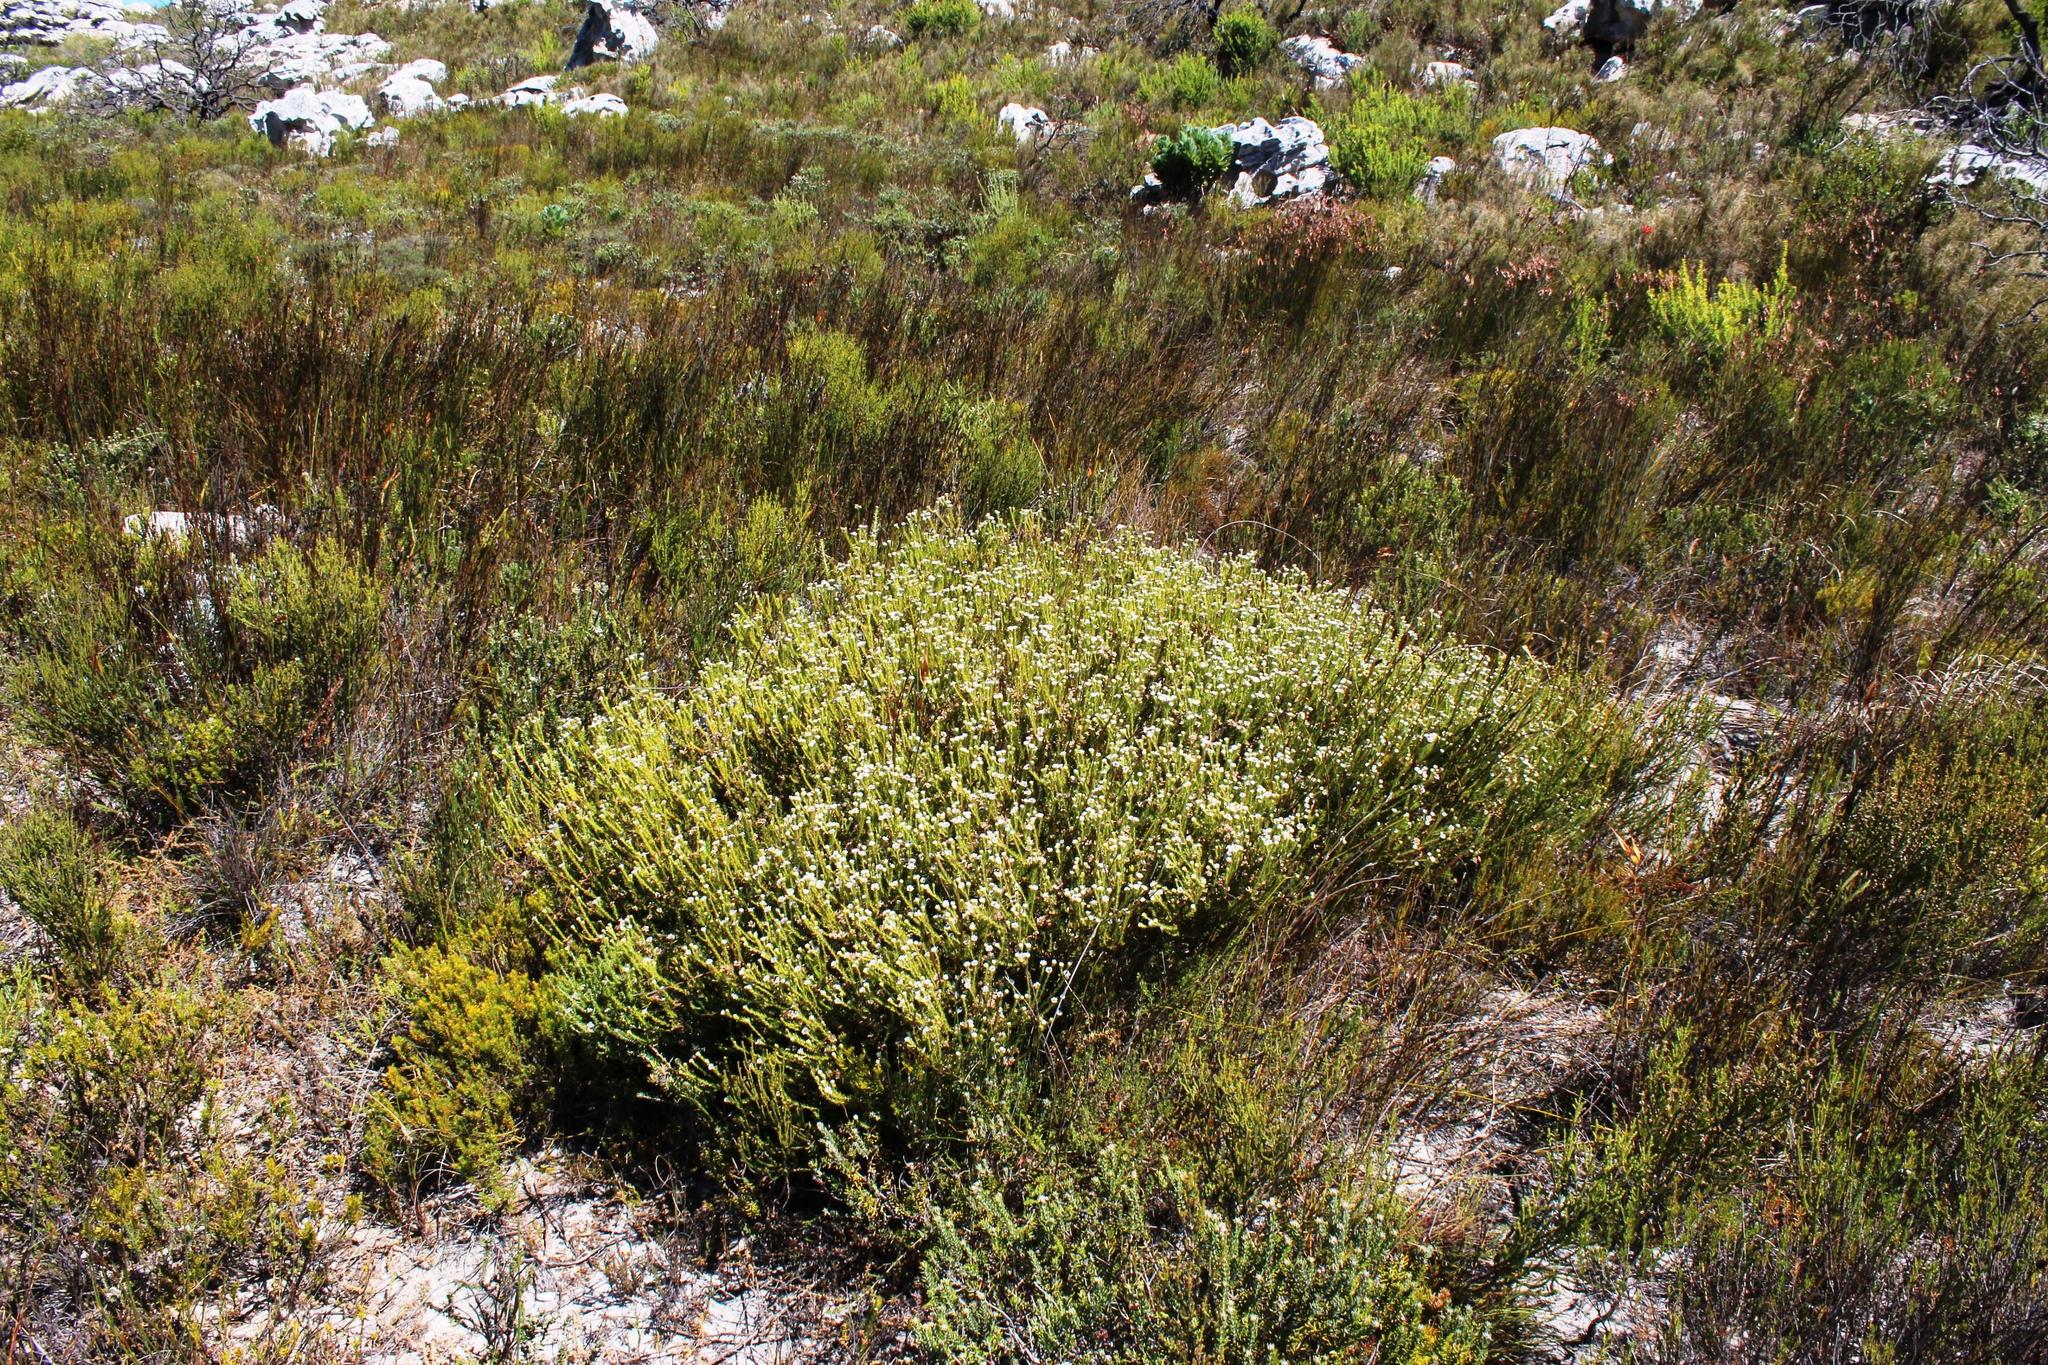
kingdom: Plantae
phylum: Tracheophyta
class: Magnoliopsida
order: Bruniales
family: Bruniaceae
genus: Staavia
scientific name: Staavia radiata
